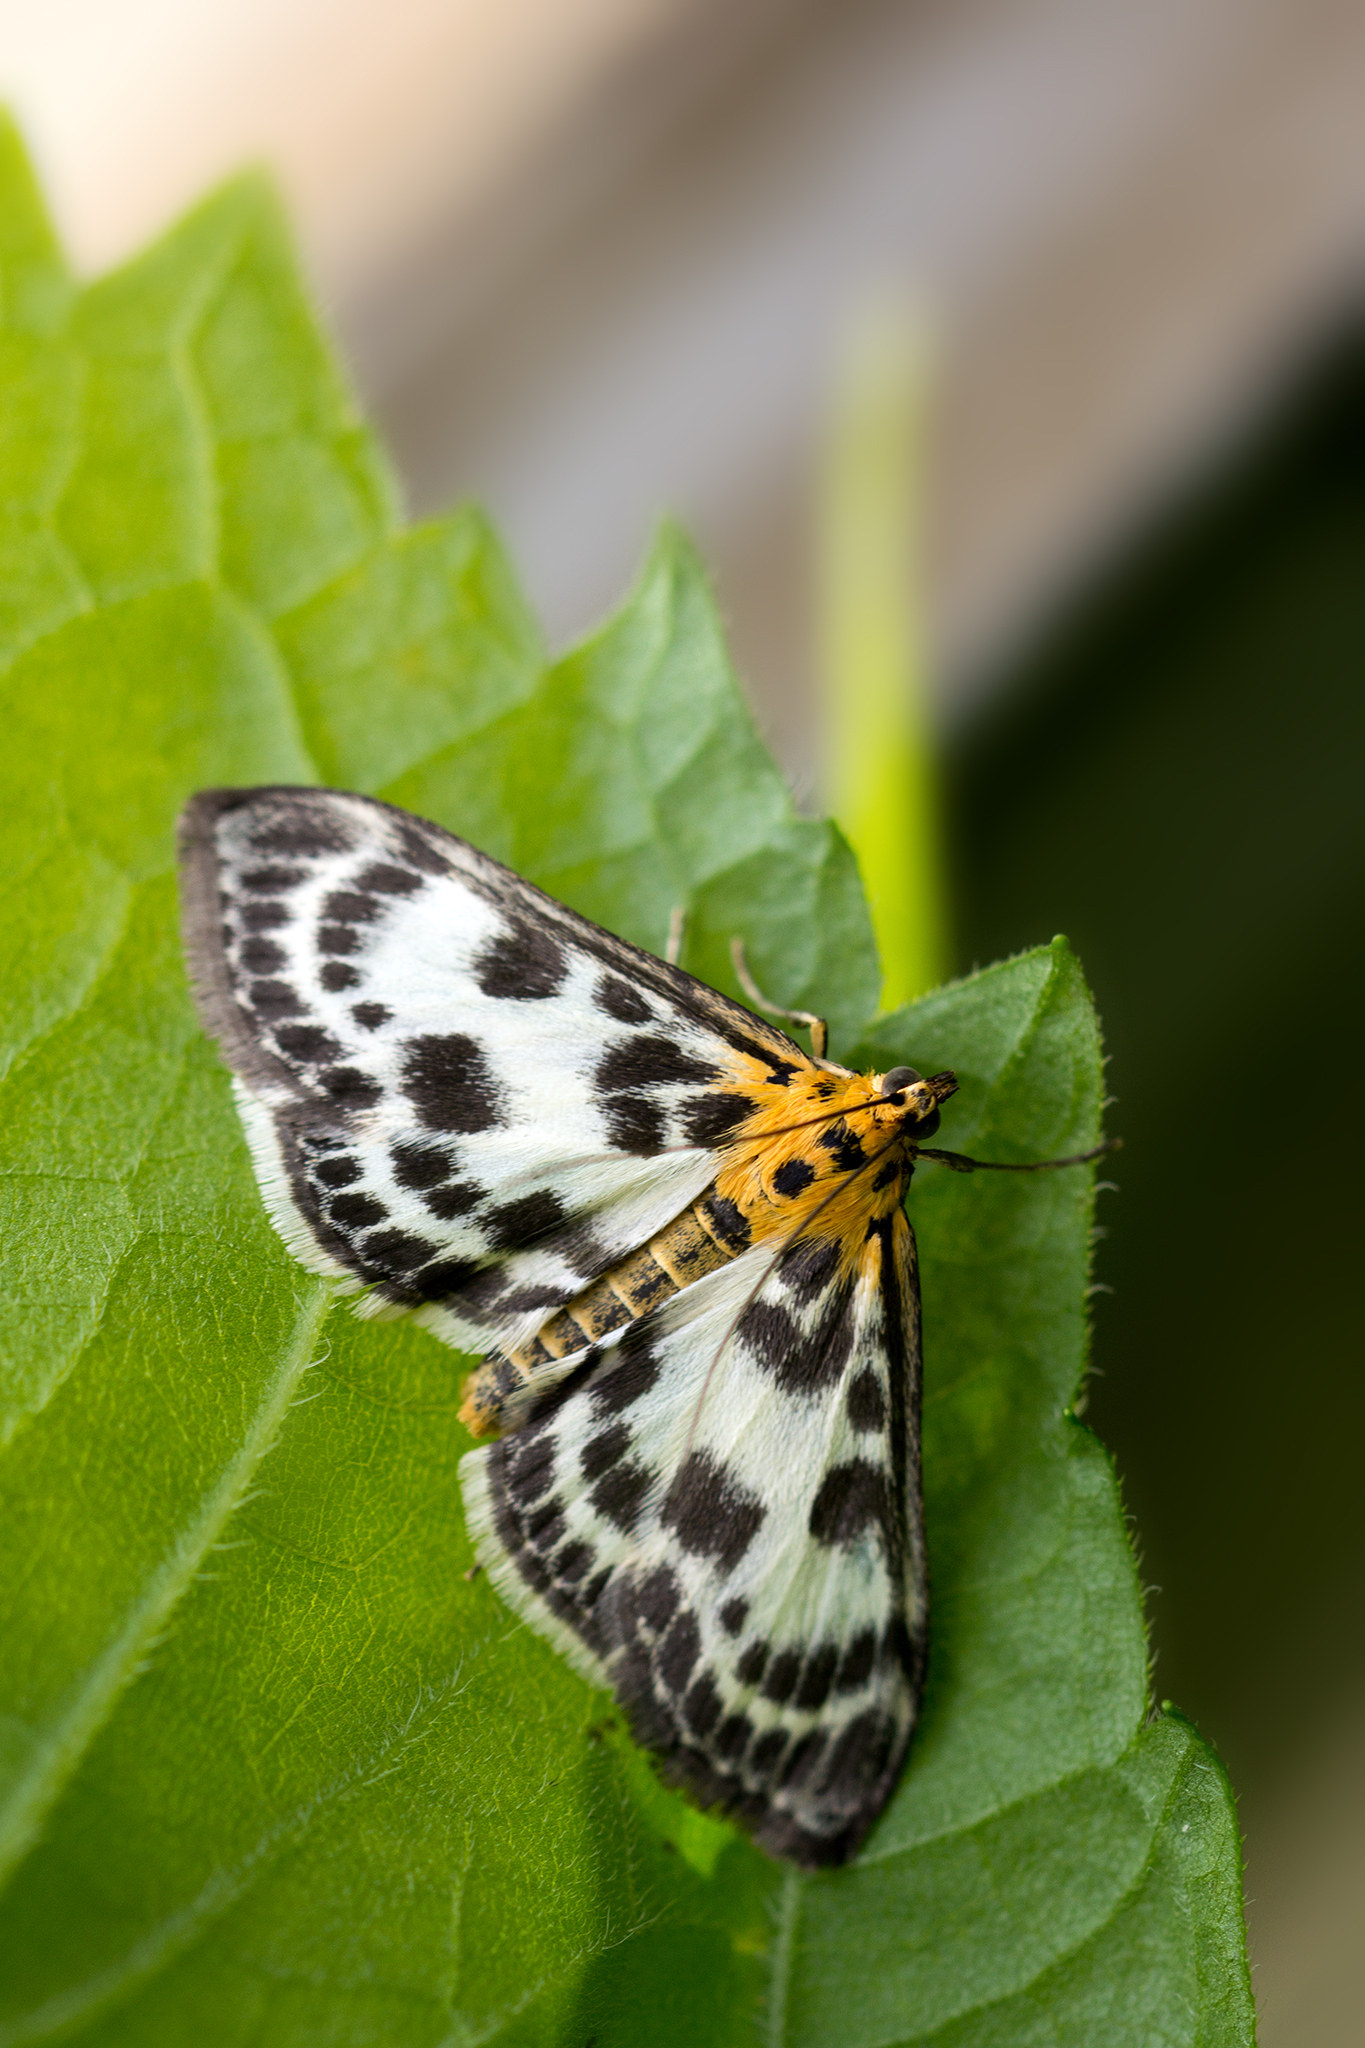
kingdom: Animalia
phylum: Arthropoda
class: Insecta
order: Lepidoptera
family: Crambidae
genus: Anania
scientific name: Anania hortulata
